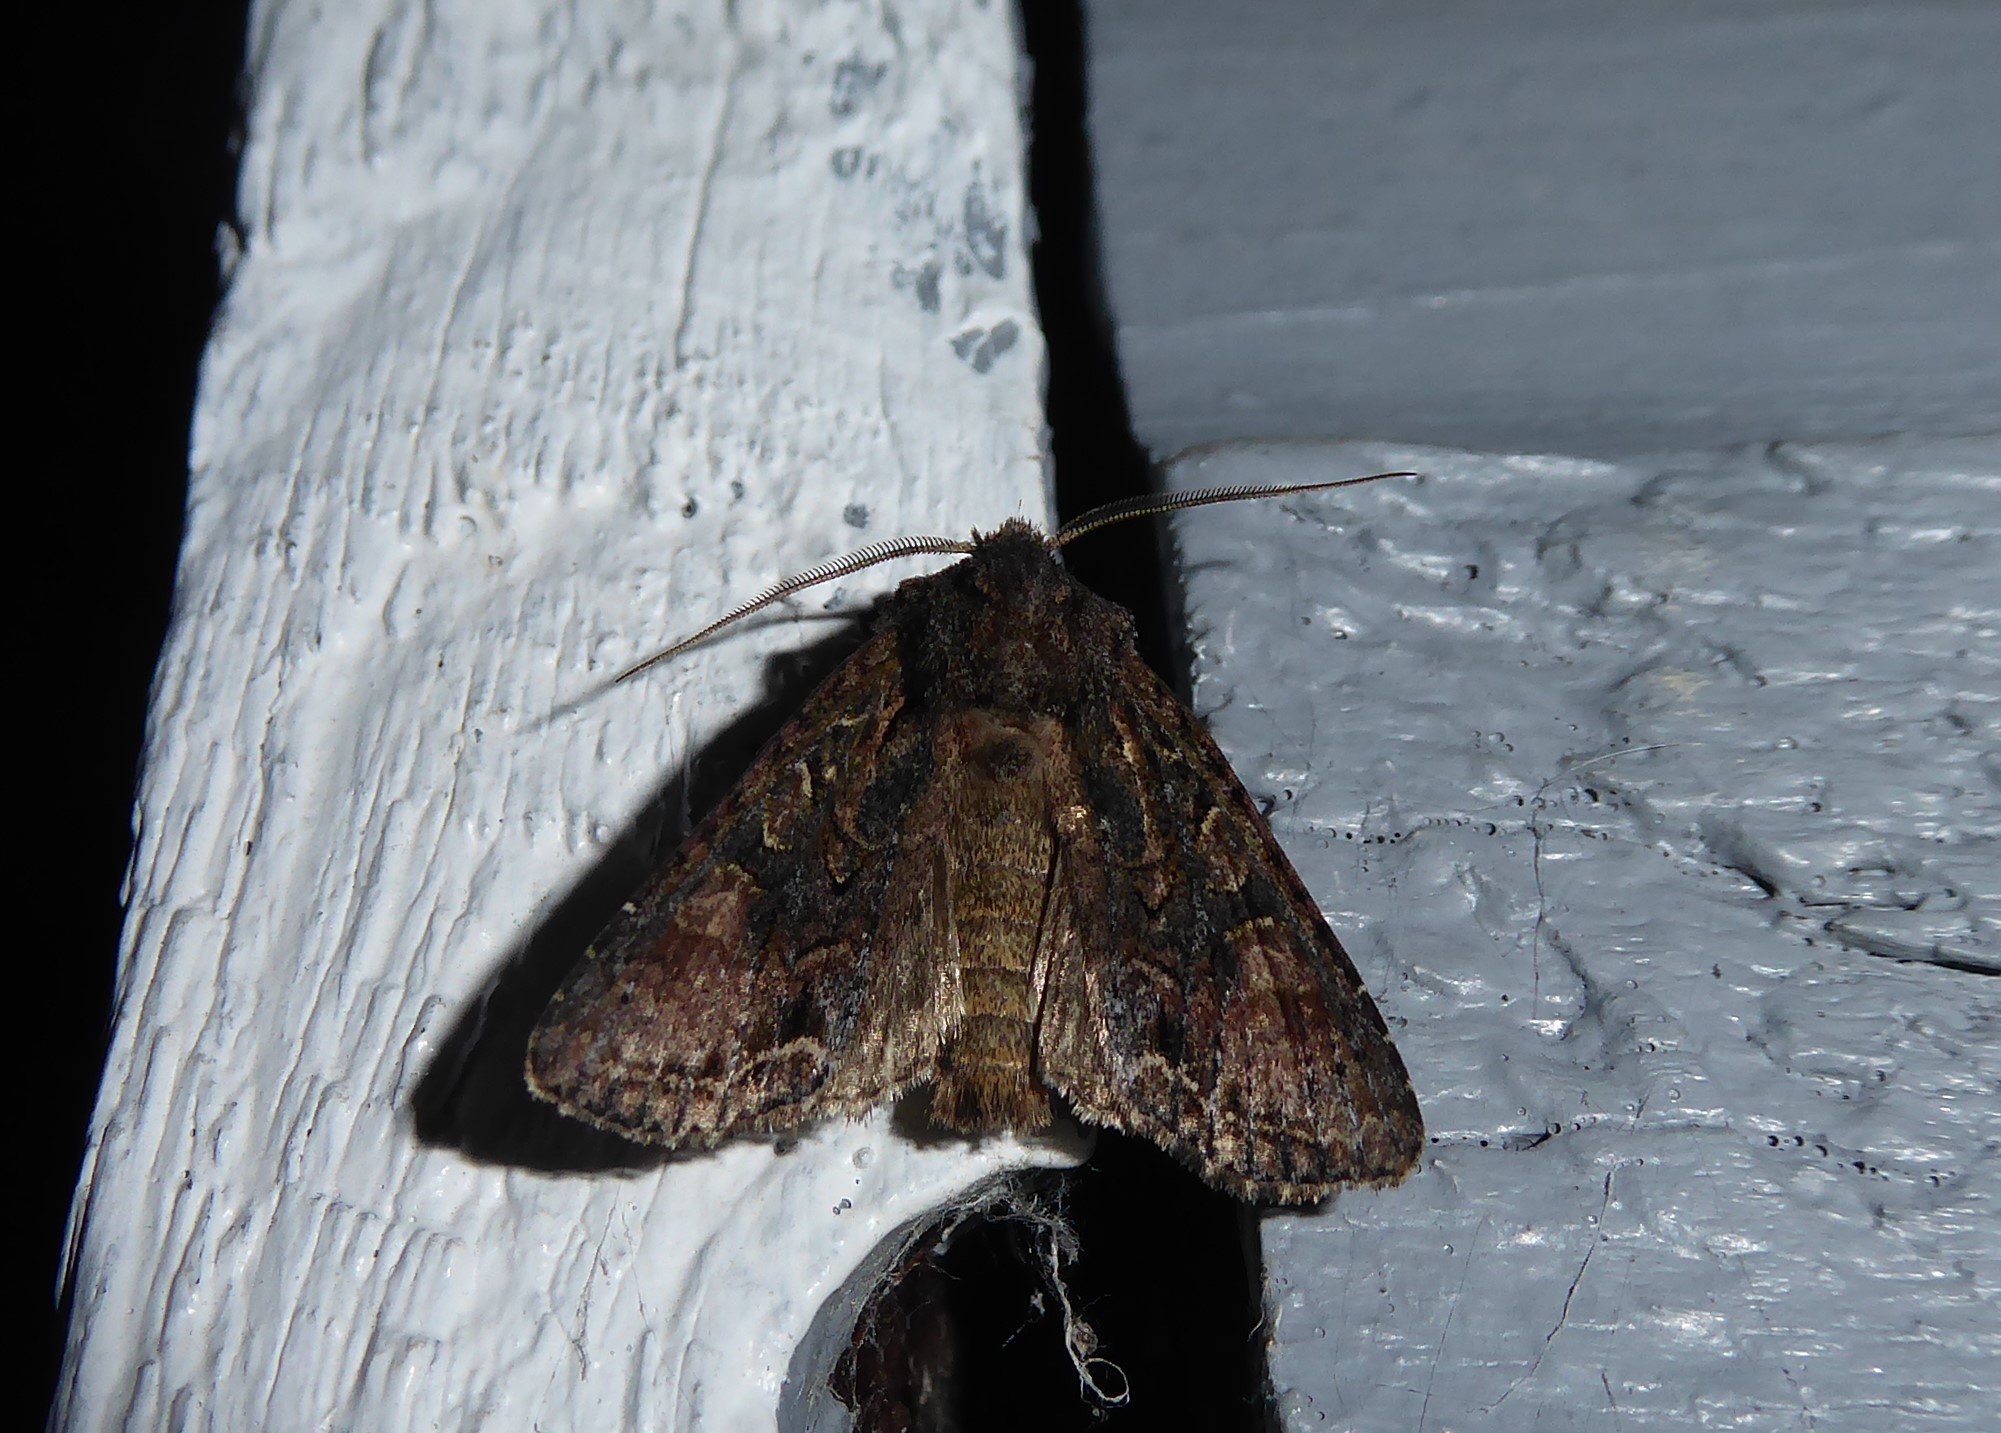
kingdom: Animalia
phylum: Arthropoda
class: Insecta
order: Lepidoptera
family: Noctuidae
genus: Ichneutica
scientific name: Ichneutica mutans
